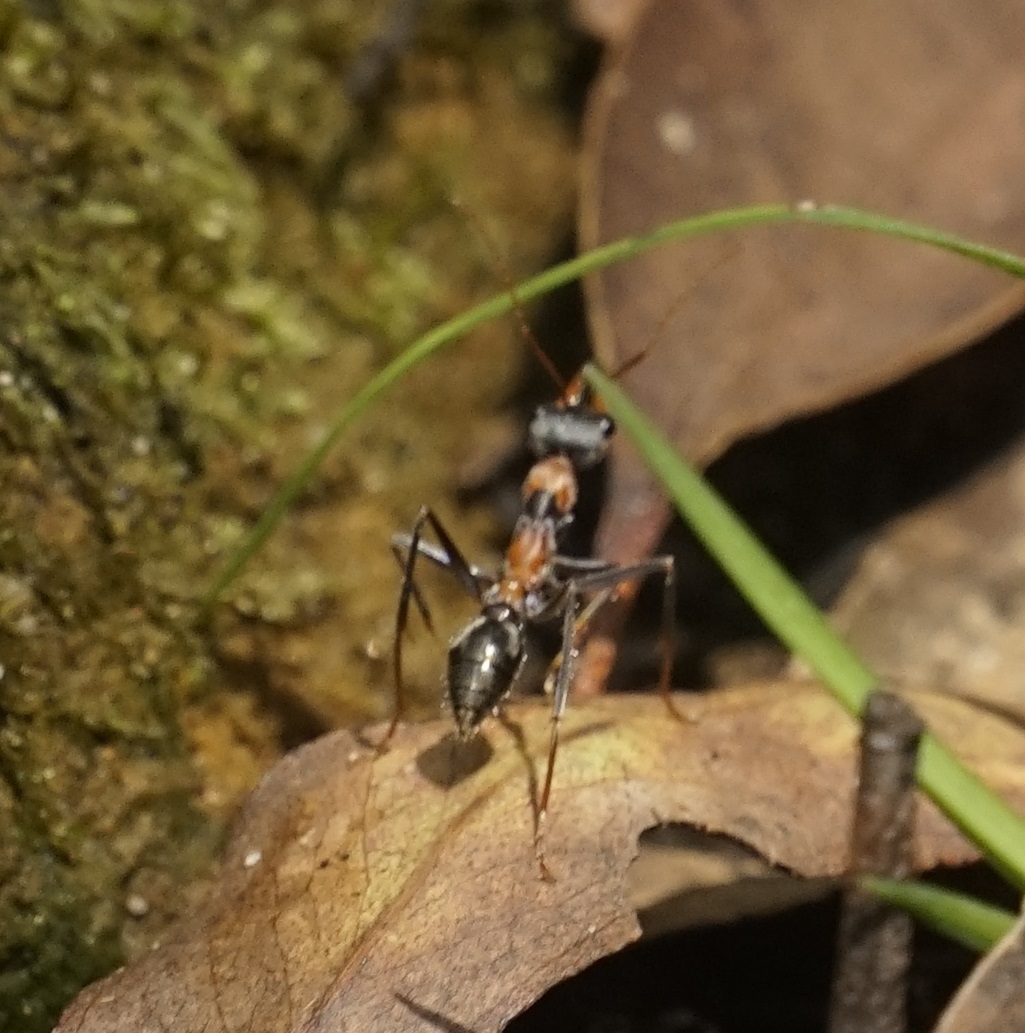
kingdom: Animalia
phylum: Arthropoda
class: Insecta
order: Hymenoptera
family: Formicidae
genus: Myrmecia
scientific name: Myrmecia nigrocincta
